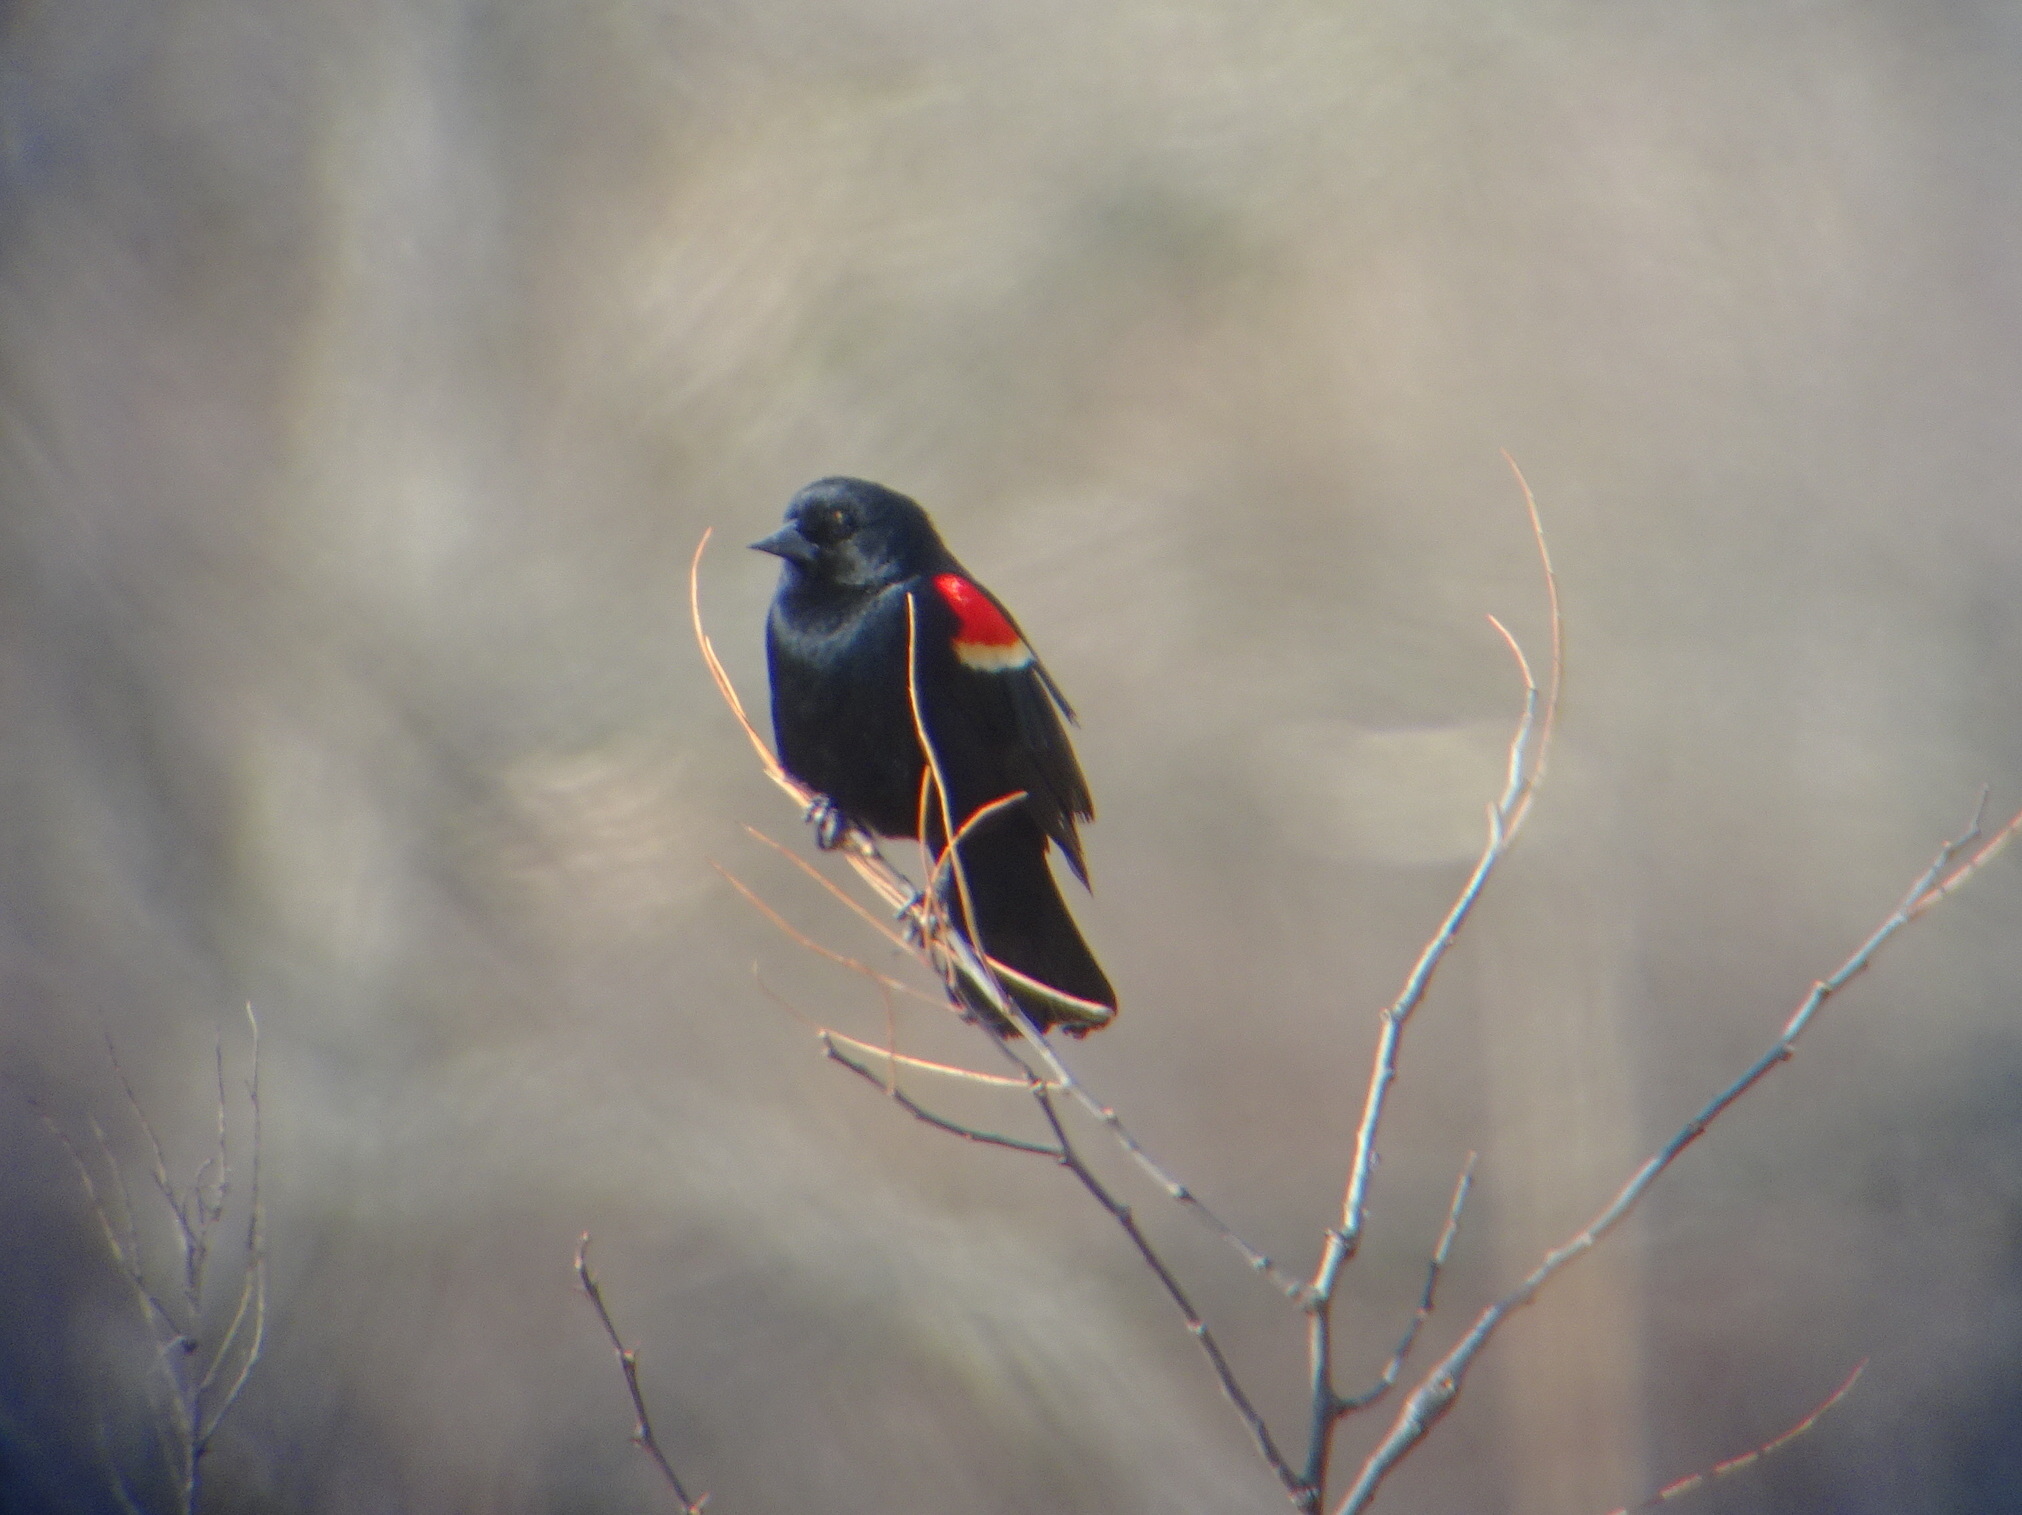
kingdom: Animalia
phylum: Chordata
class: Aves
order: Passeriformes
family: Icteridae
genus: Agelaius
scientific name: Agelaius phoeniceus
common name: Red-winged blackbird
